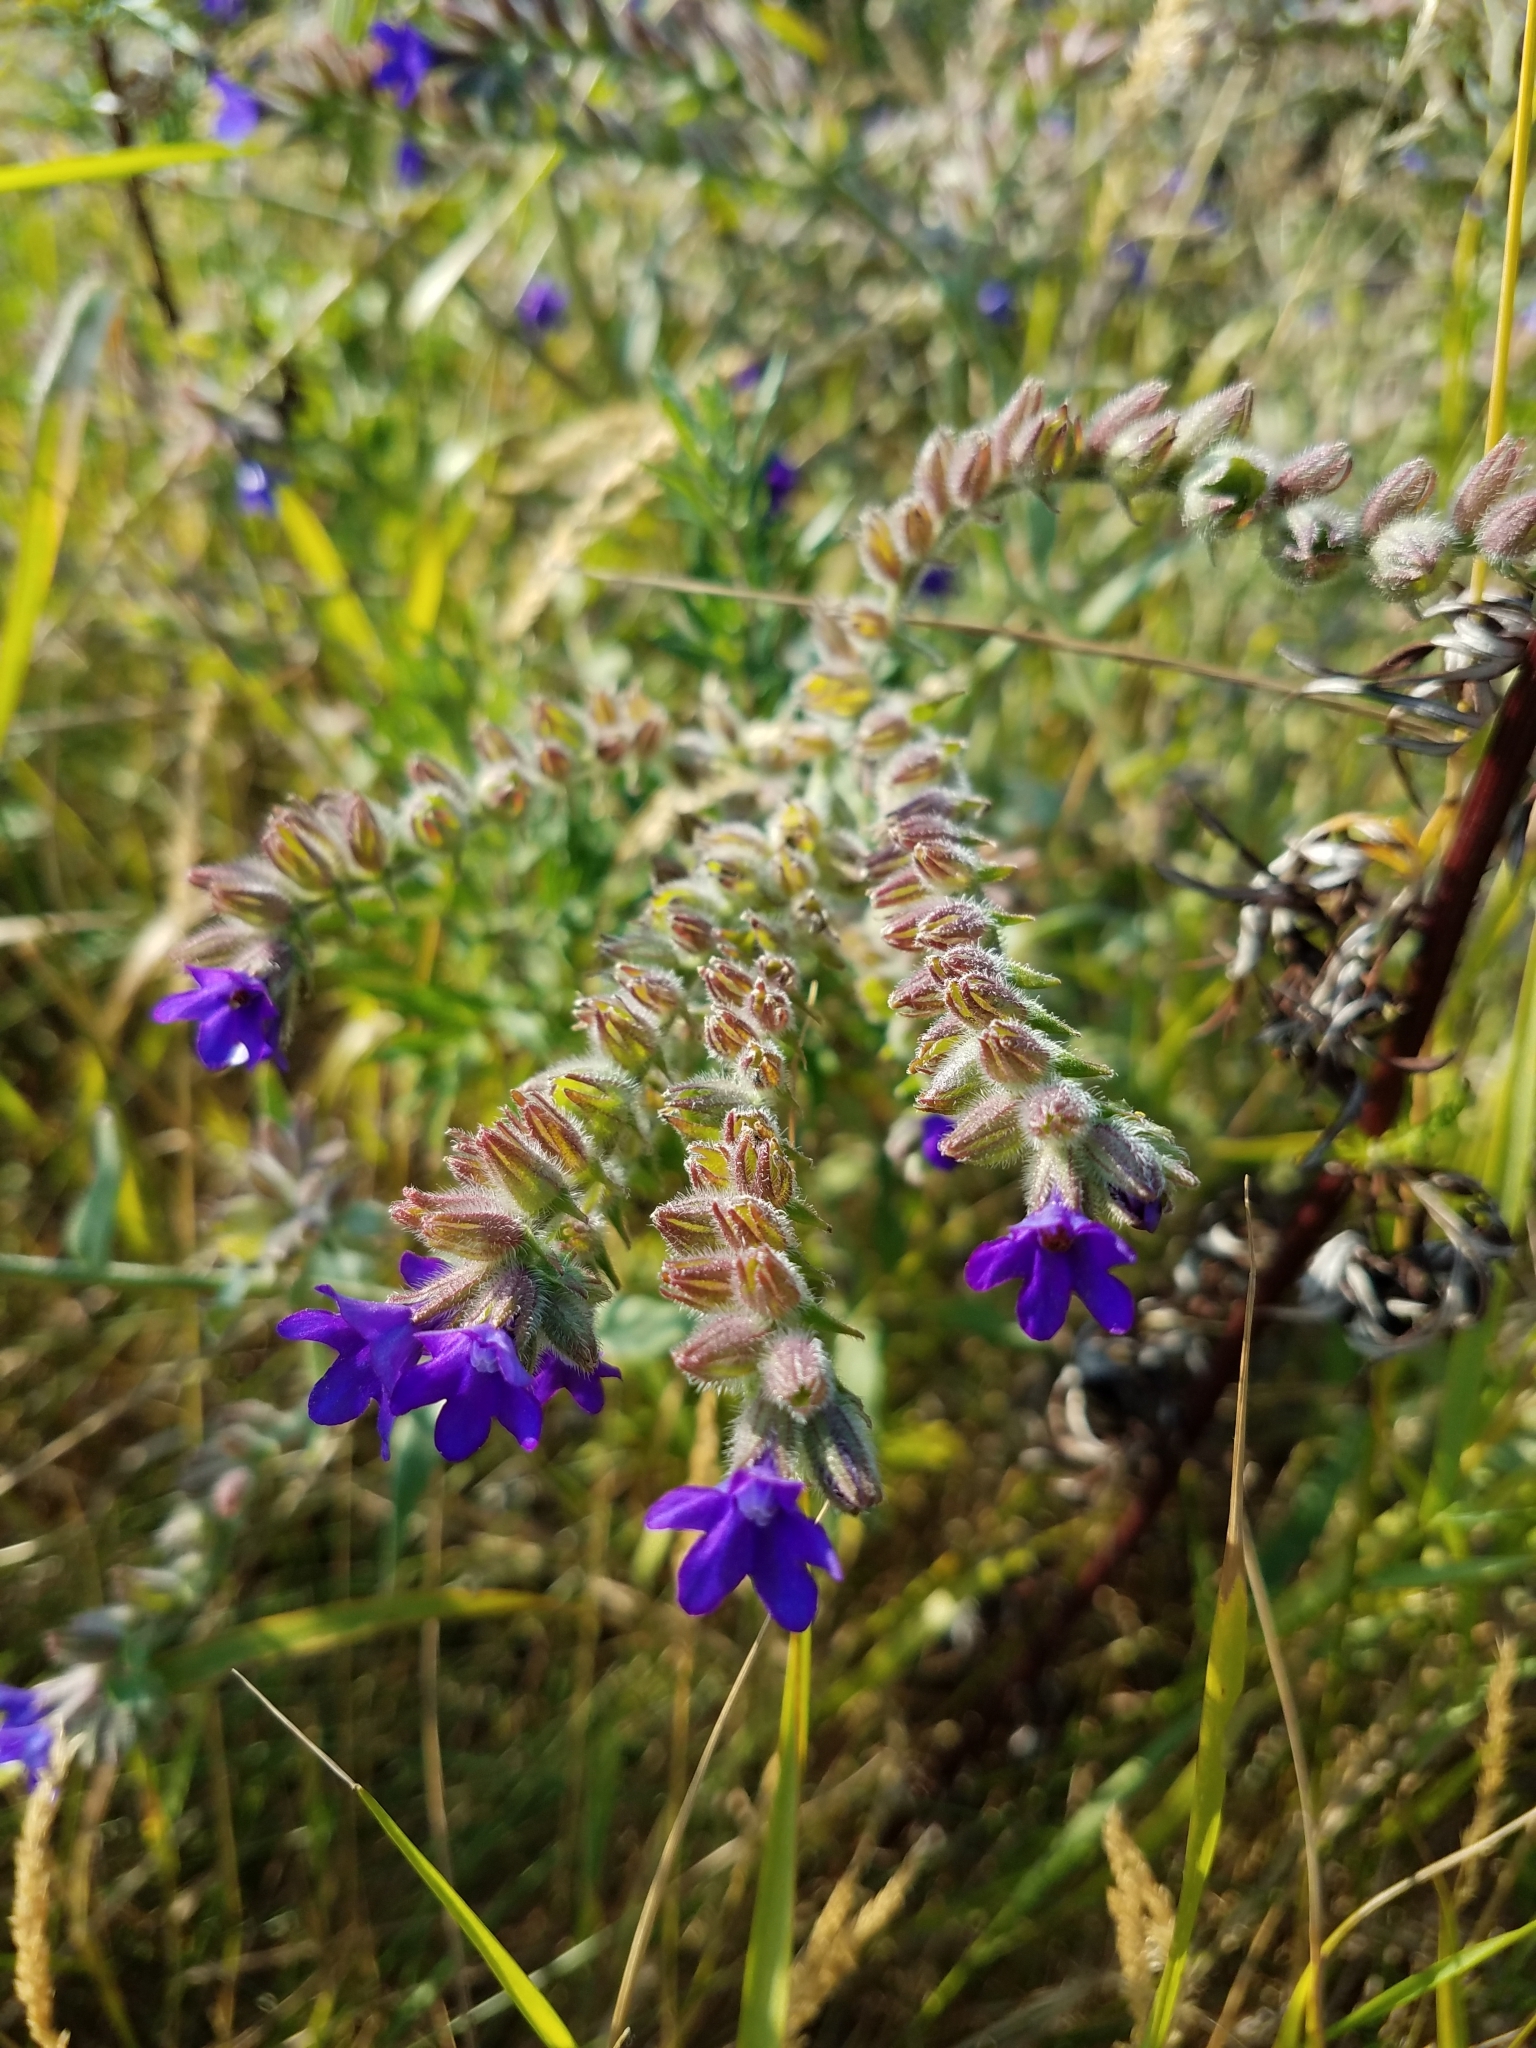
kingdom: Plantae
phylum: Tracheophyta
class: Magnoliopsida
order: Boraginales
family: Boraginaceae
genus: Anchusa
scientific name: Anchusa officinalis
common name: Alkanet
